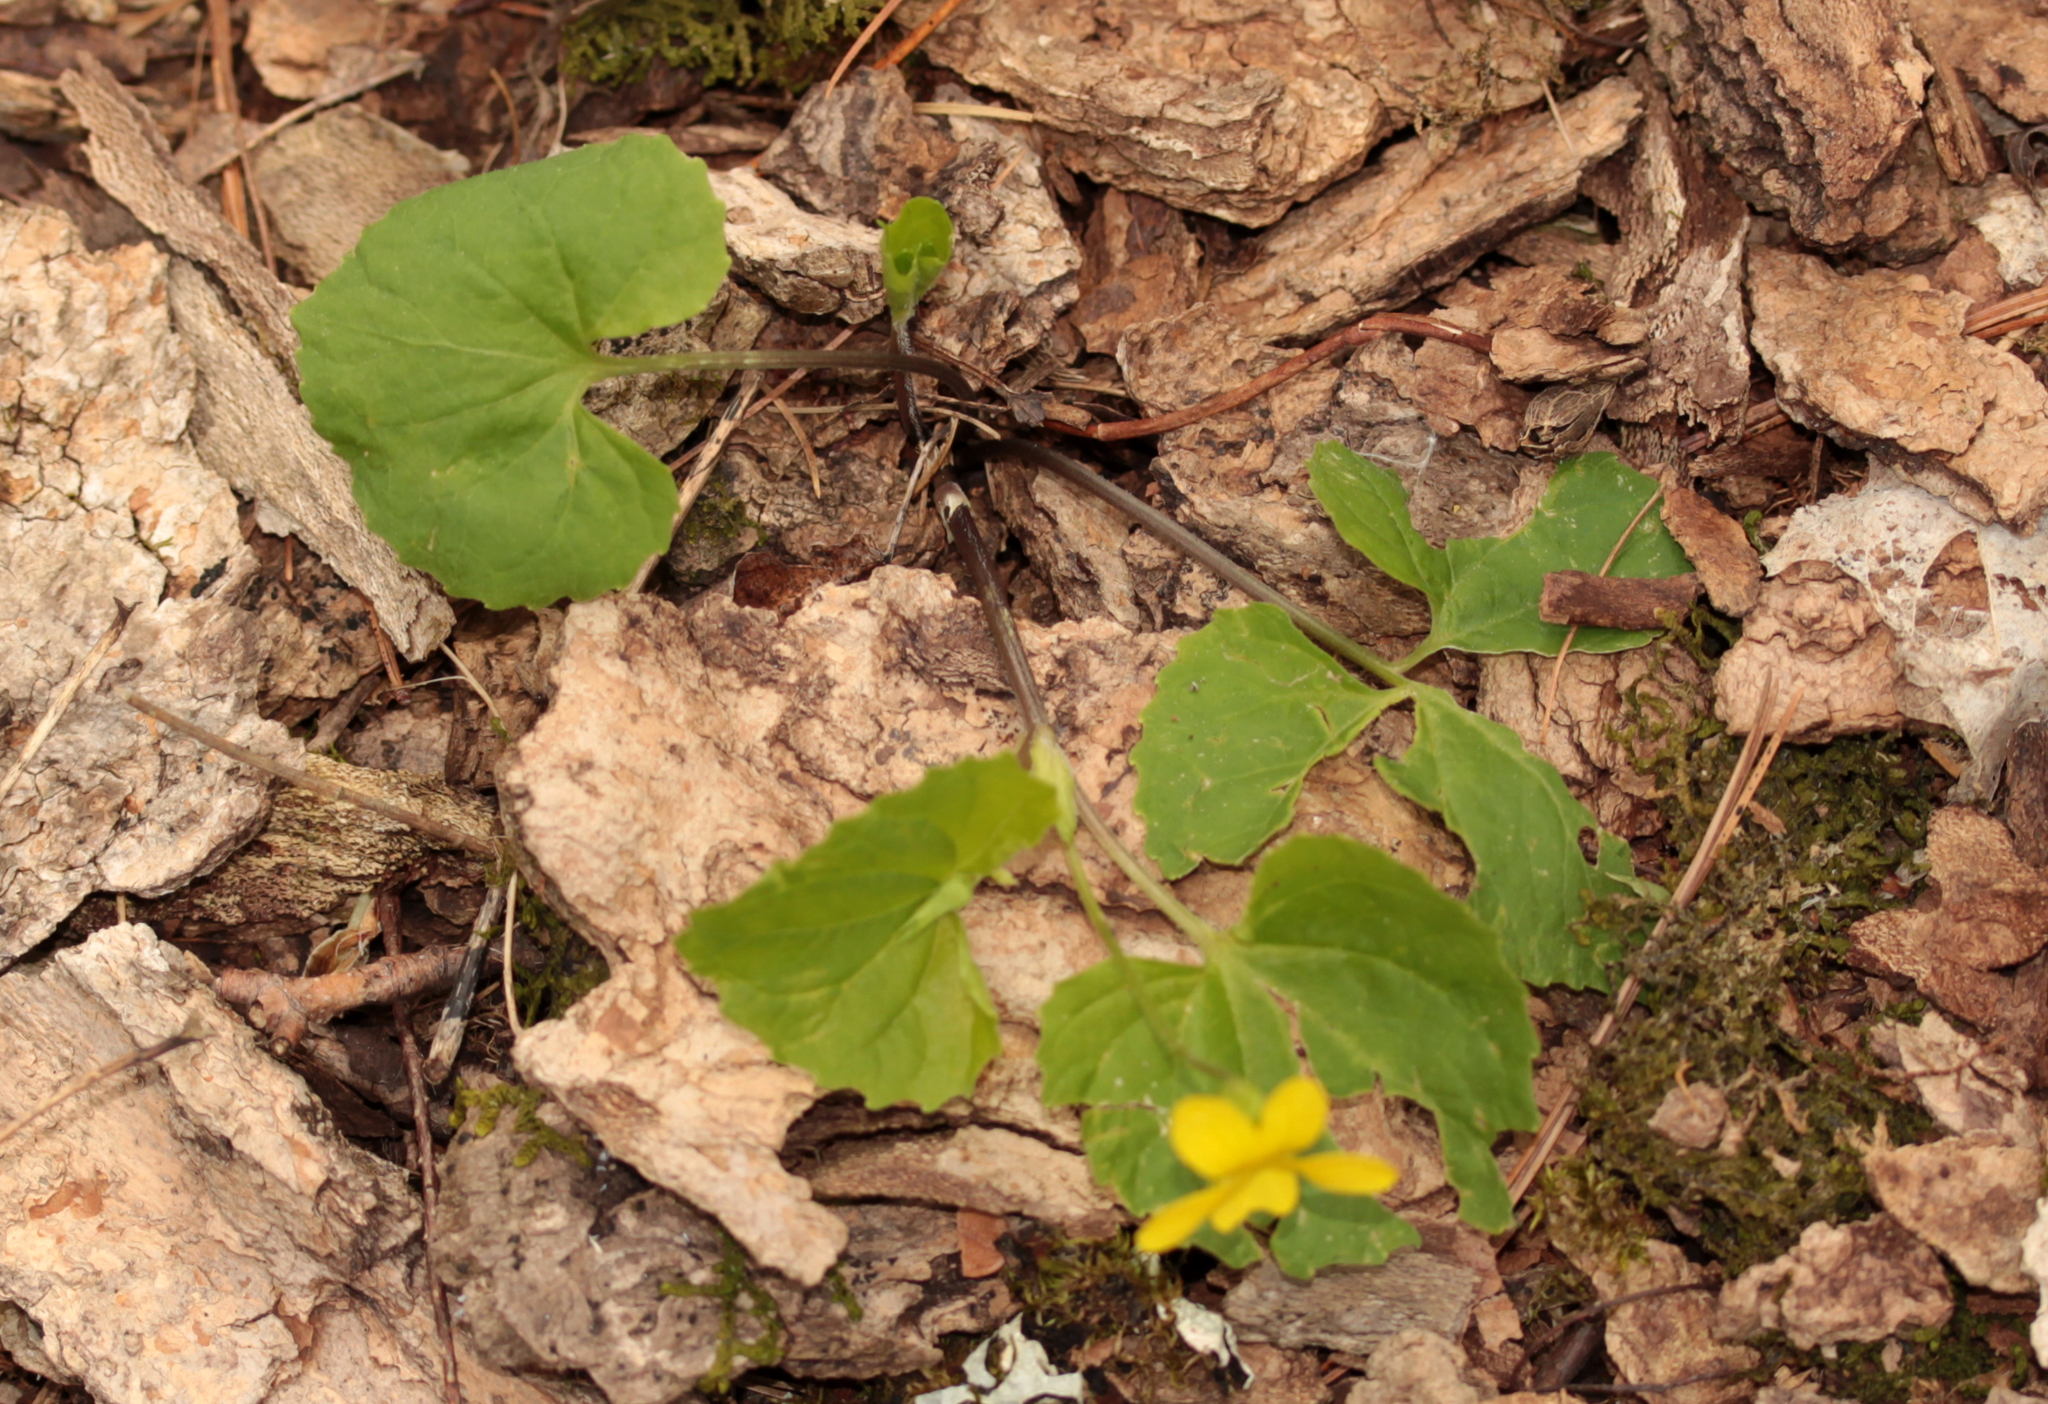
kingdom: Plantae
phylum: Tracheophyta
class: Magnoliopsida
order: Malpighiales
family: Violaceae
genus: Viola
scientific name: Viola eriocarpa
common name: Smooth yellow violet
